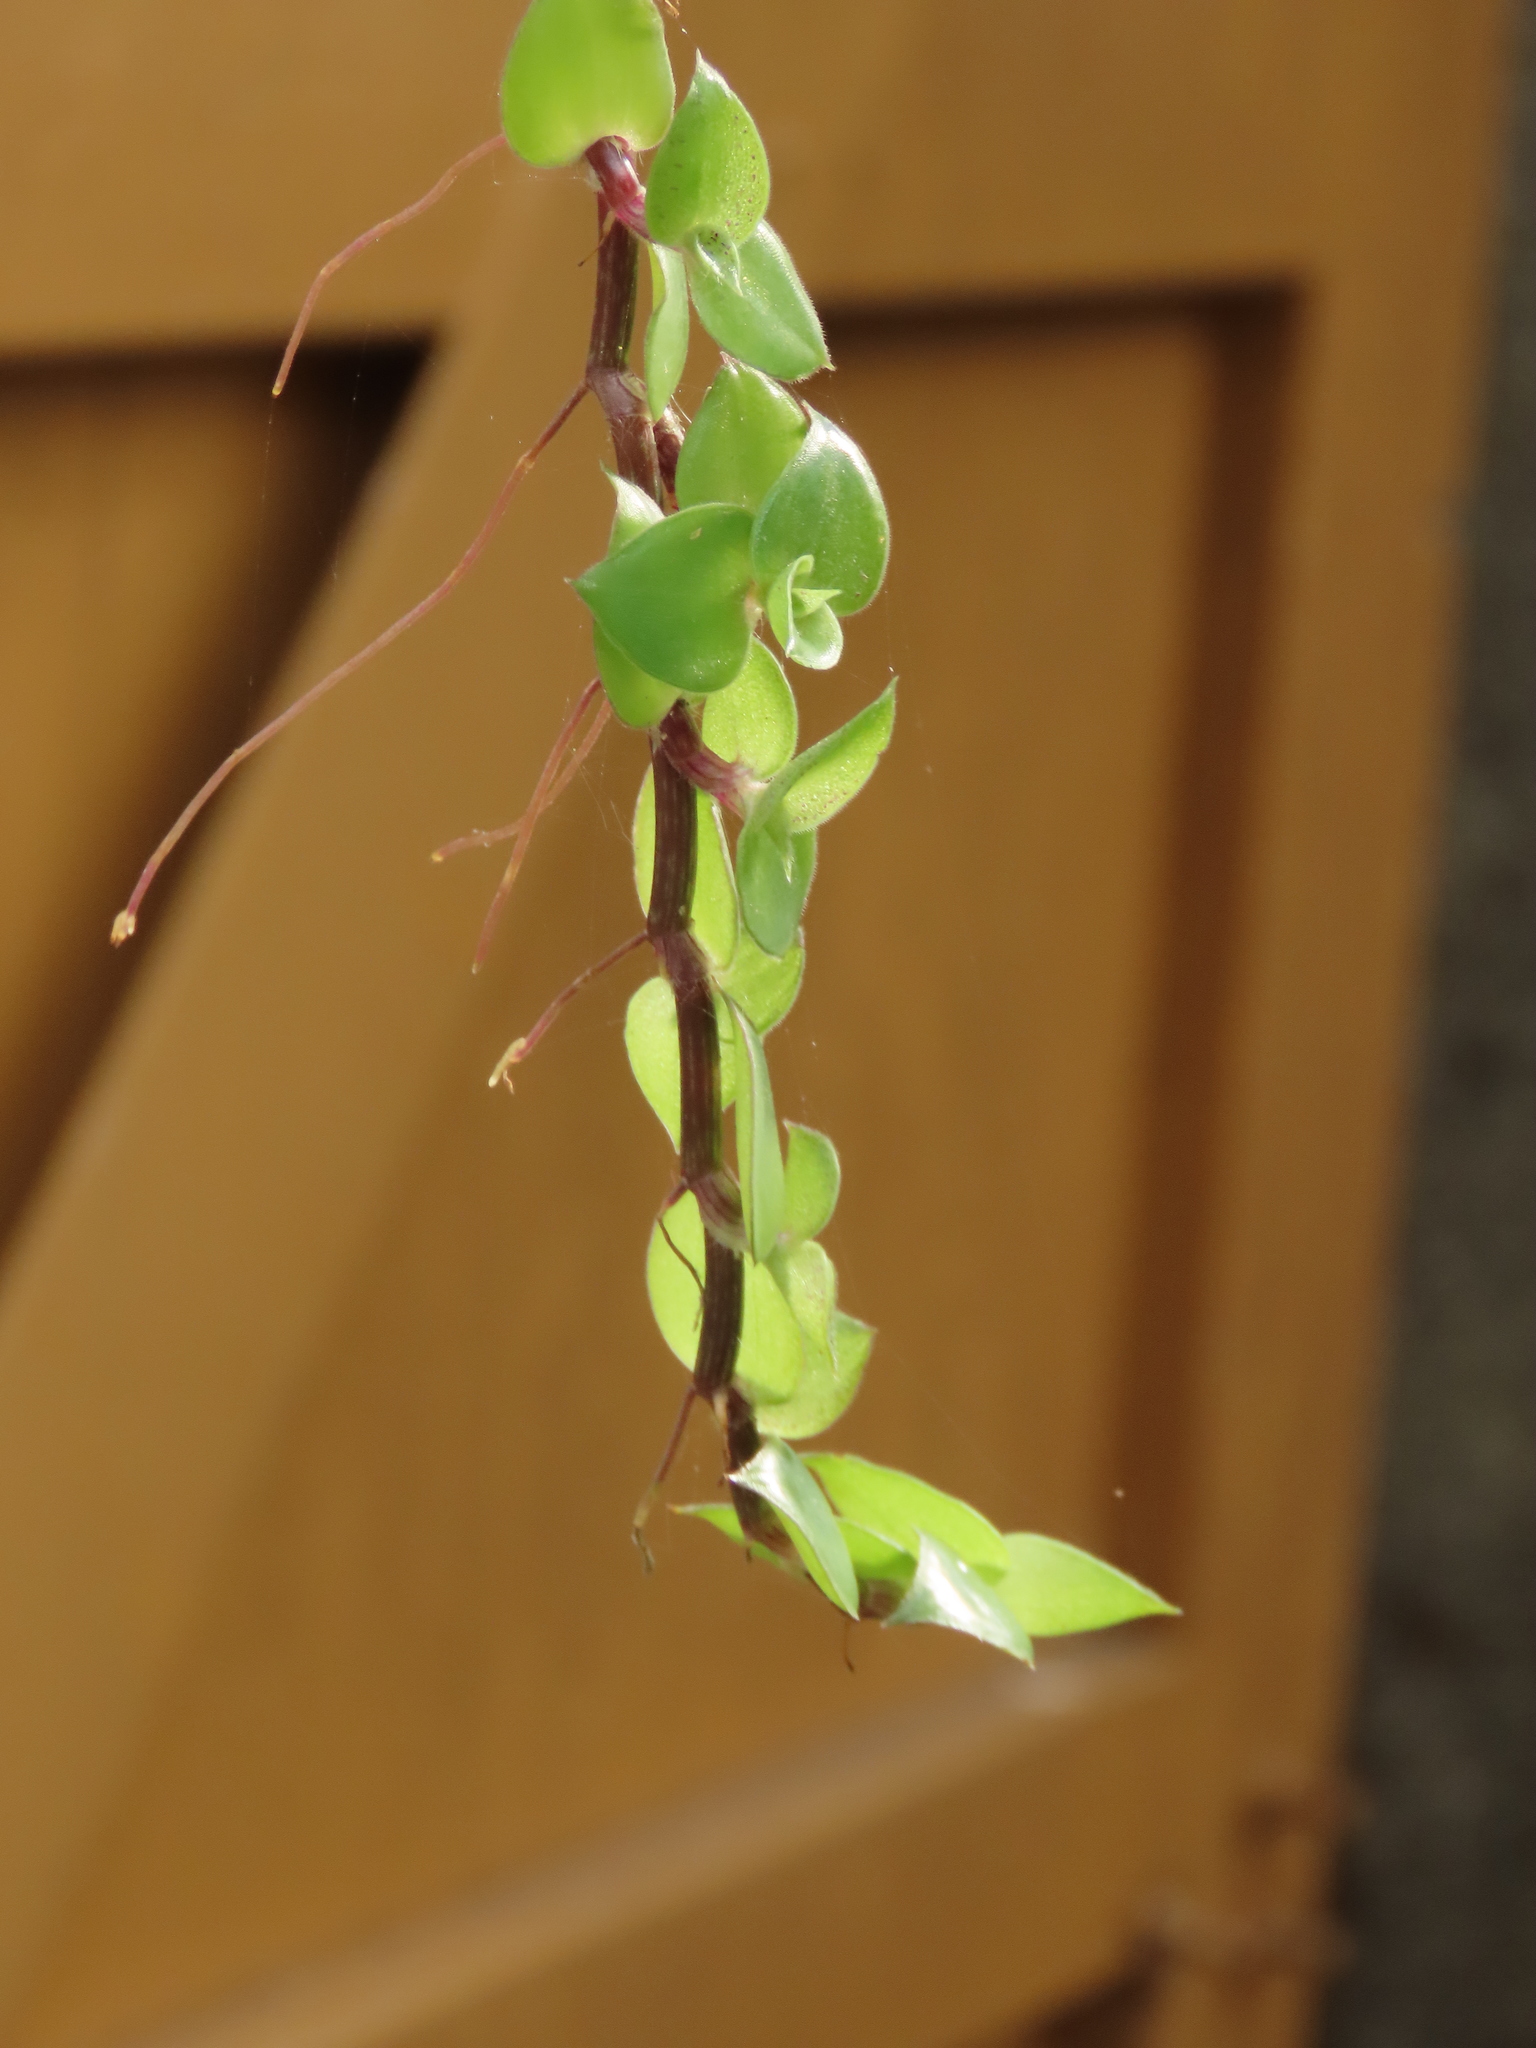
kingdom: Plantae
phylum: Tracheophyta
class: Liliopsida
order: Commelinales
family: Commelinaceae
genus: Callisia
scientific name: Callisia repens
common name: Creeping inchplant
